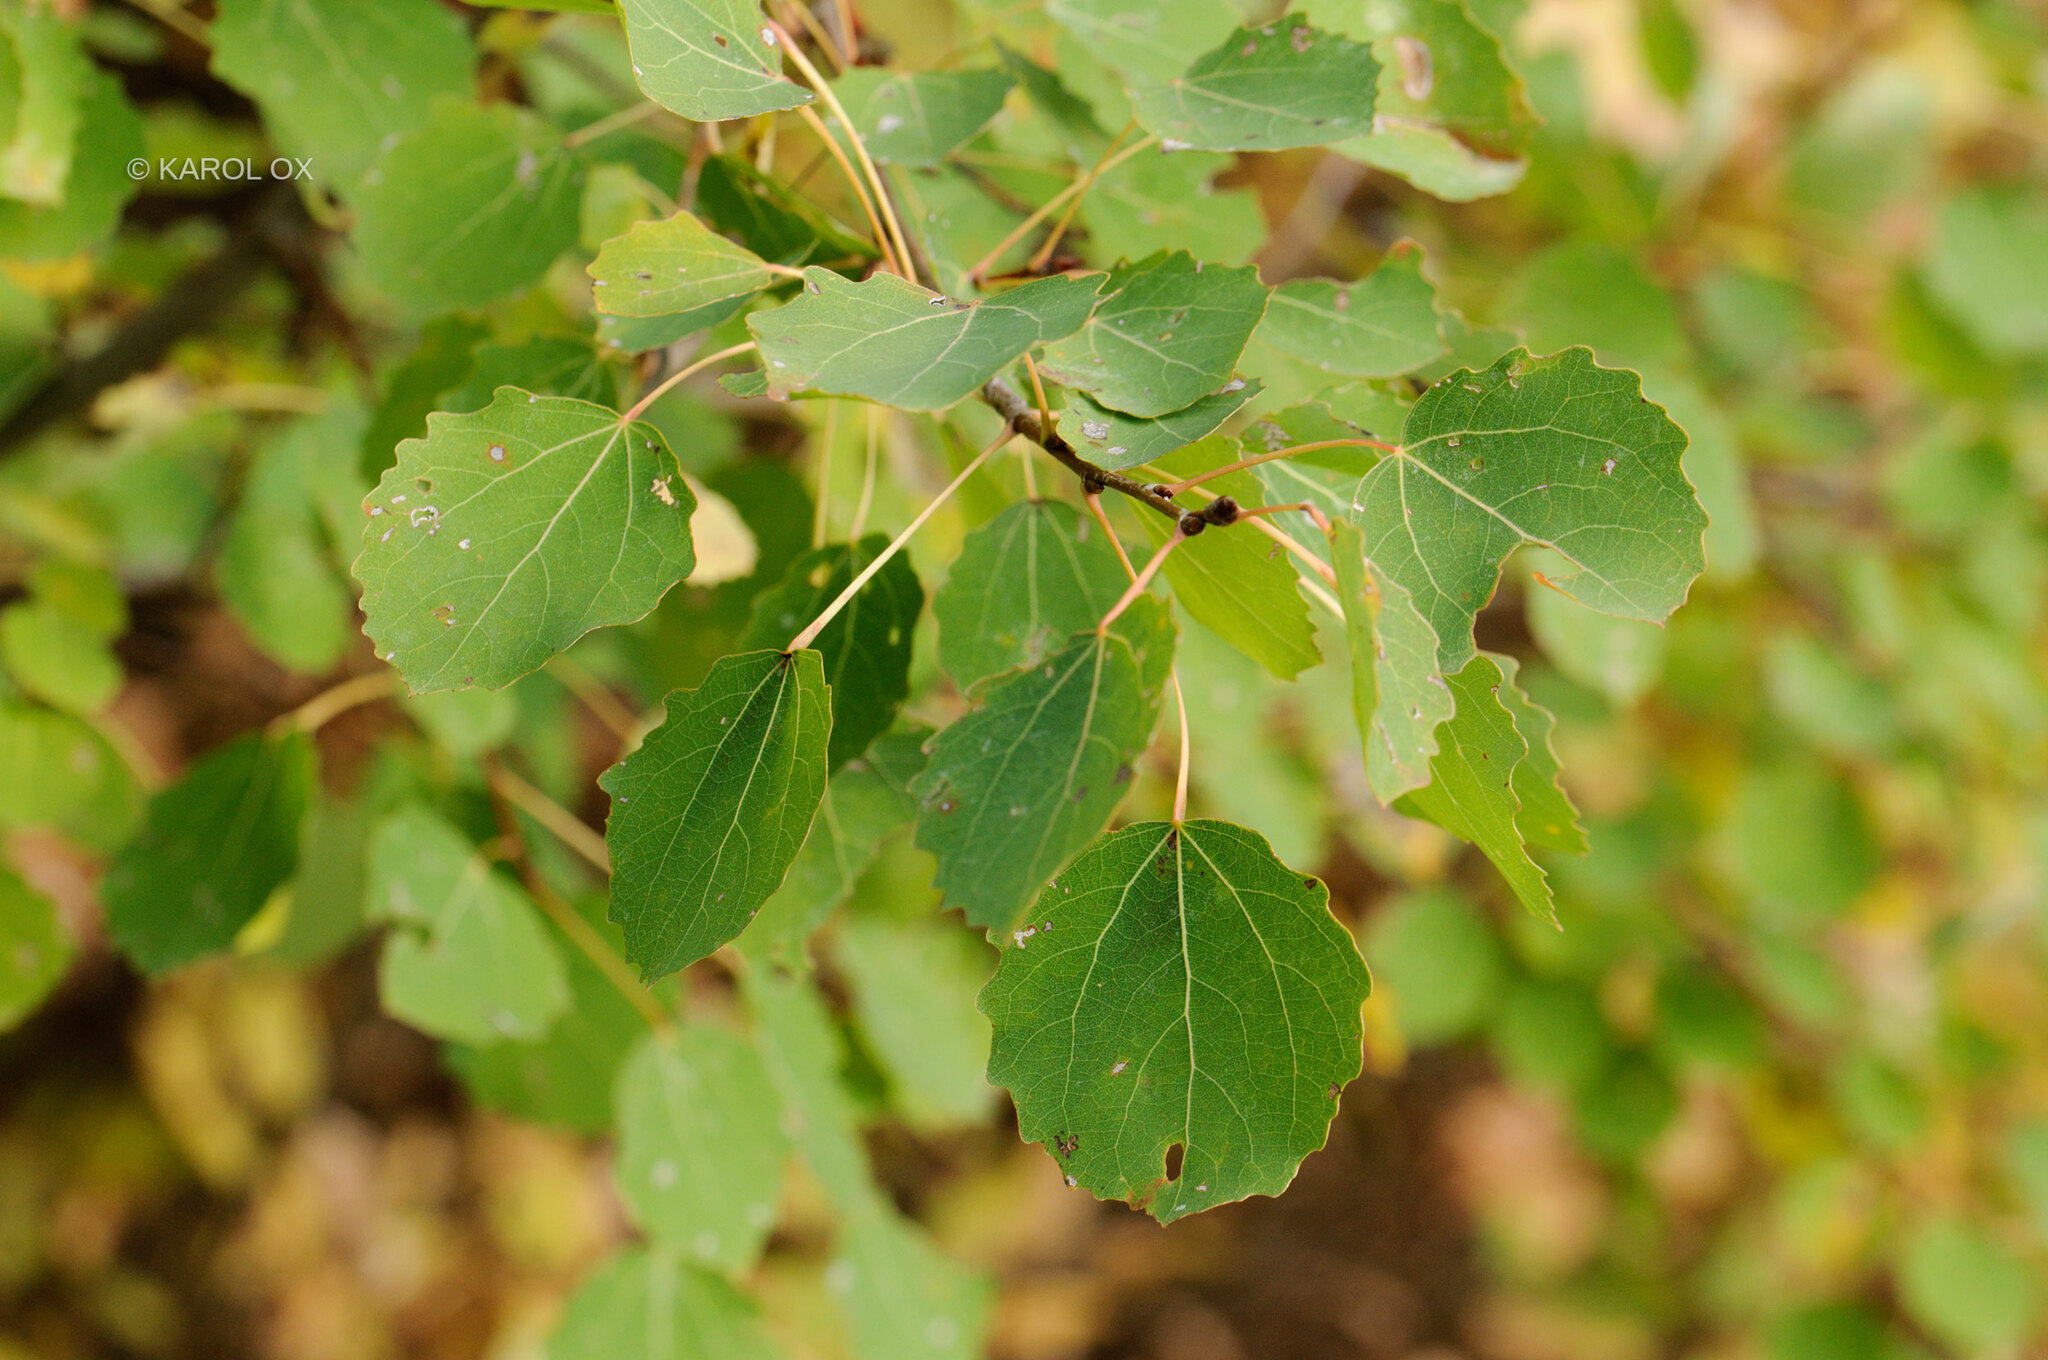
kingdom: Plantae
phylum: Tracheophyta
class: Magnoliopsida
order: Malpighiales
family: Salicaceae
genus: Populus
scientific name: Populus tremula
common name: European aspen
